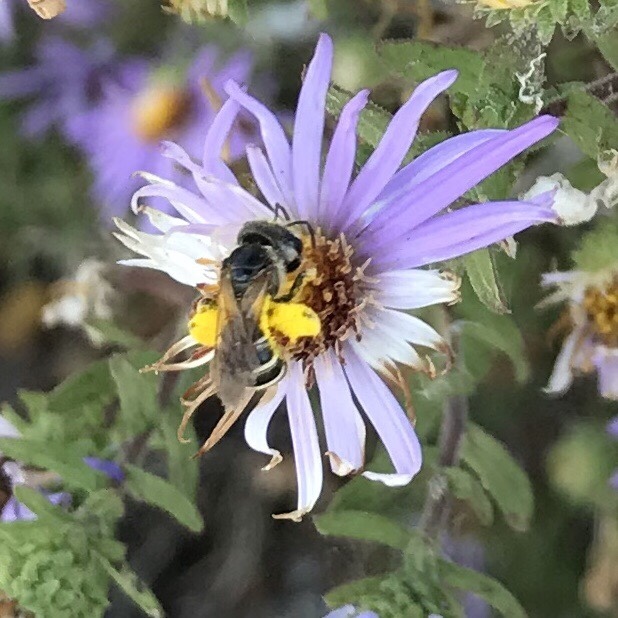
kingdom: Animalia
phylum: Arthropoda
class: Insecta
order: Hymenoptera
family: Halictidae
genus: Halictus
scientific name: Halictus ligatus
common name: Ligated furrow bee
